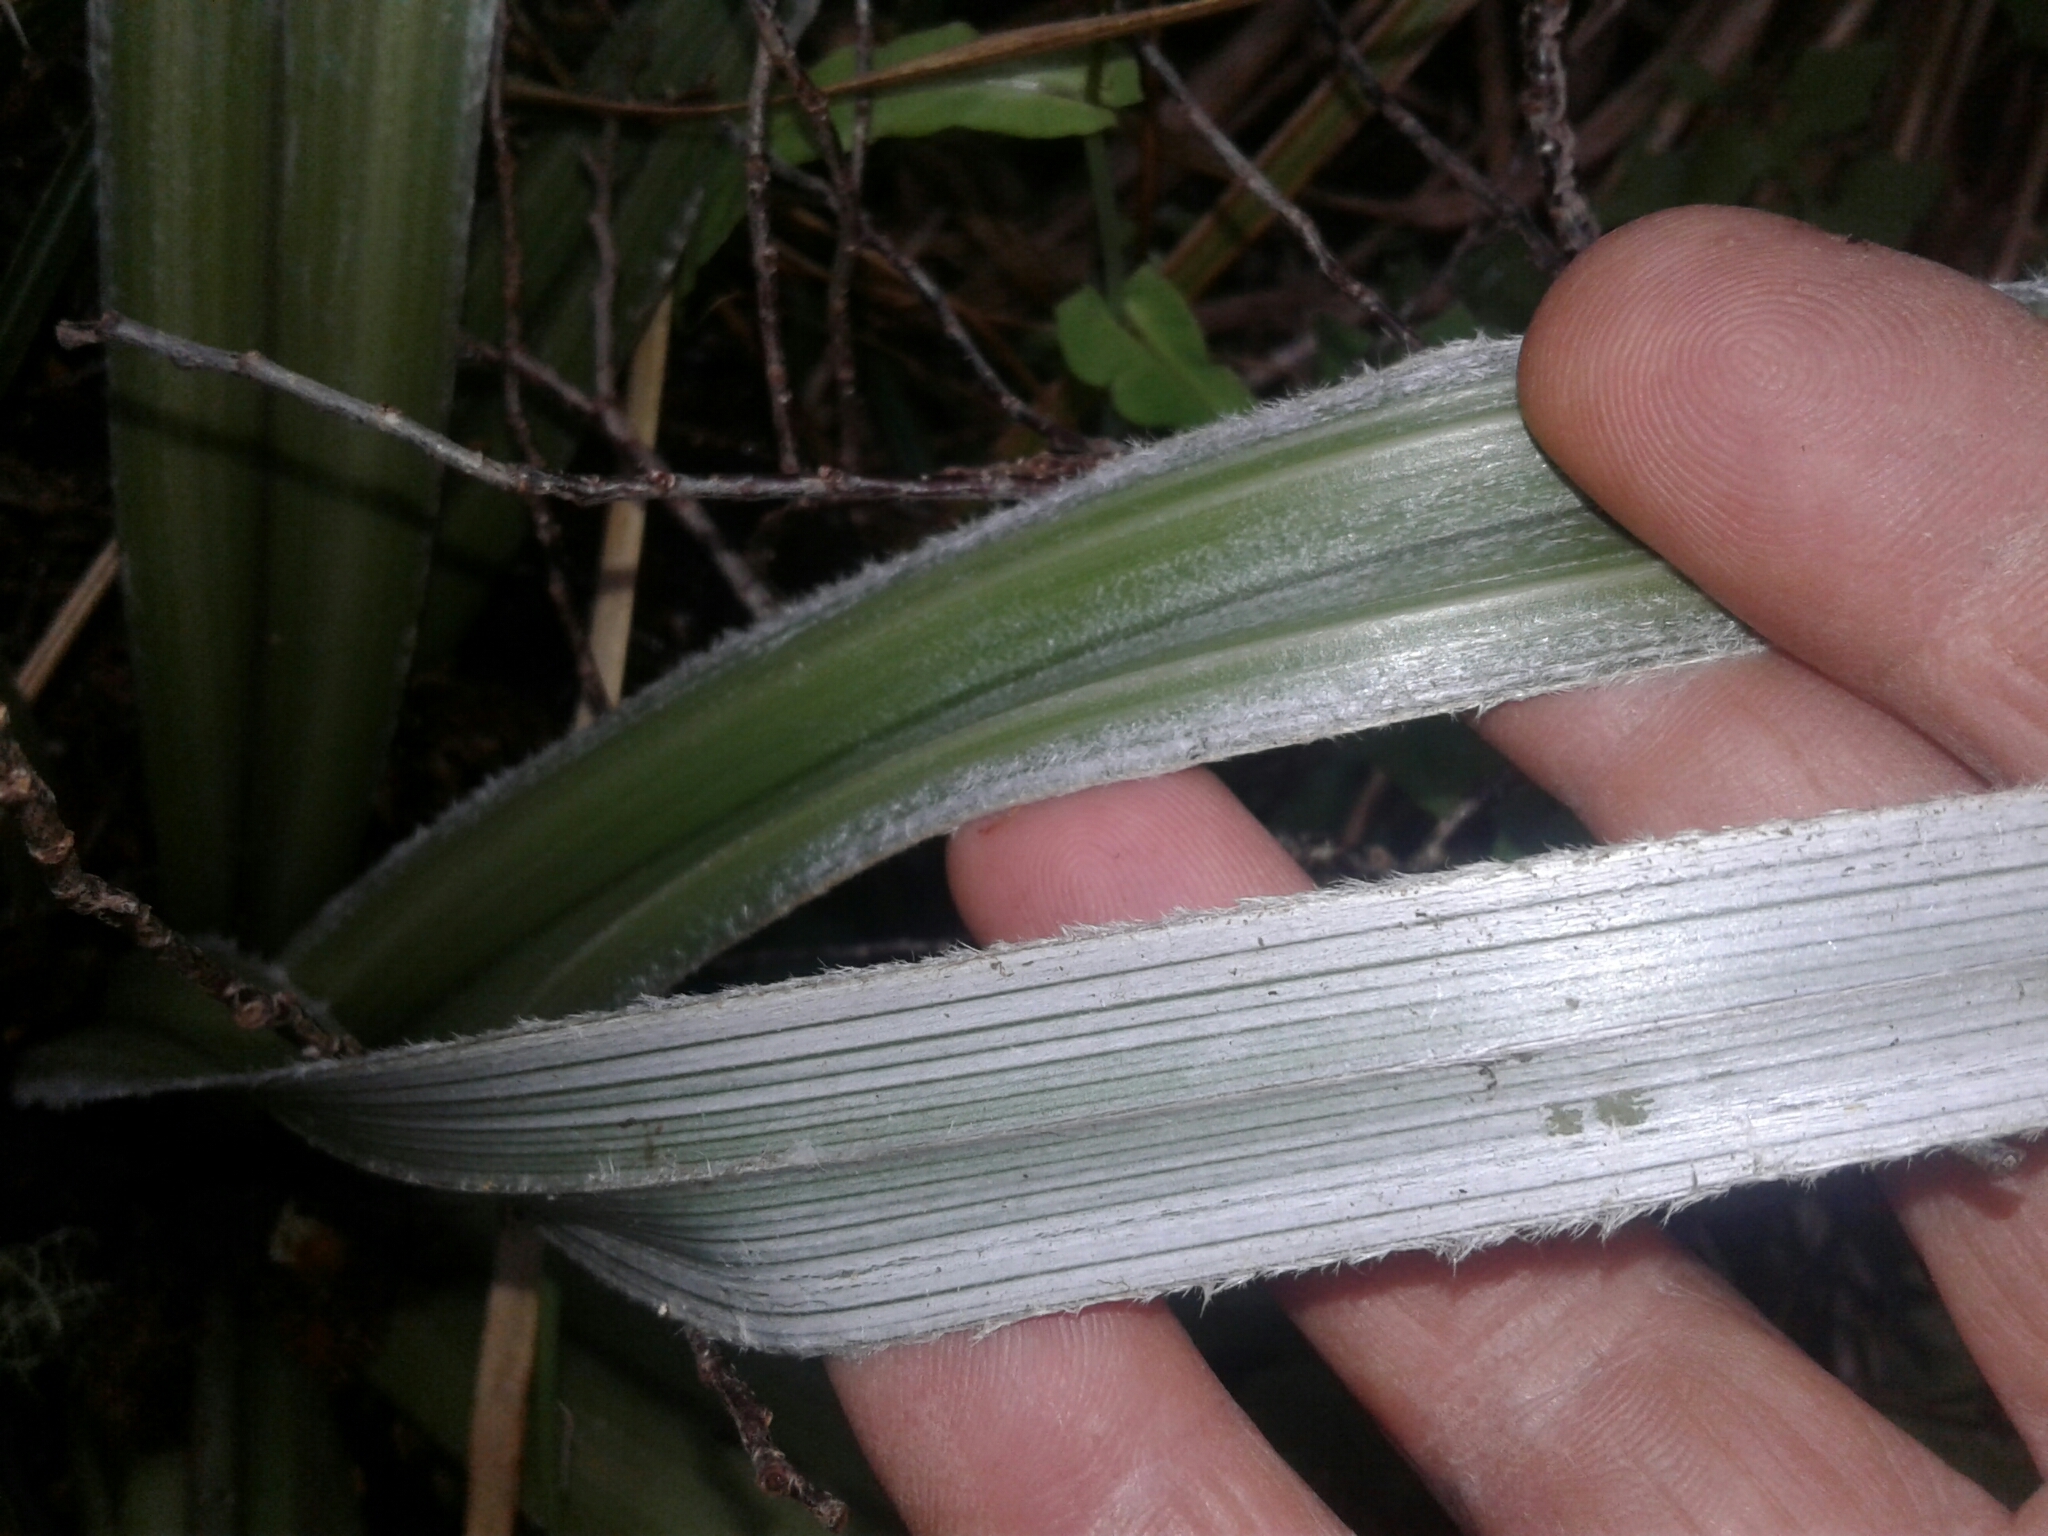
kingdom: Plantae
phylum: Tracheophyta
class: Liliopsida
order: Asparagales
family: Asteliaceae
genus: Astelia
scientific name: Astelia nervosa
